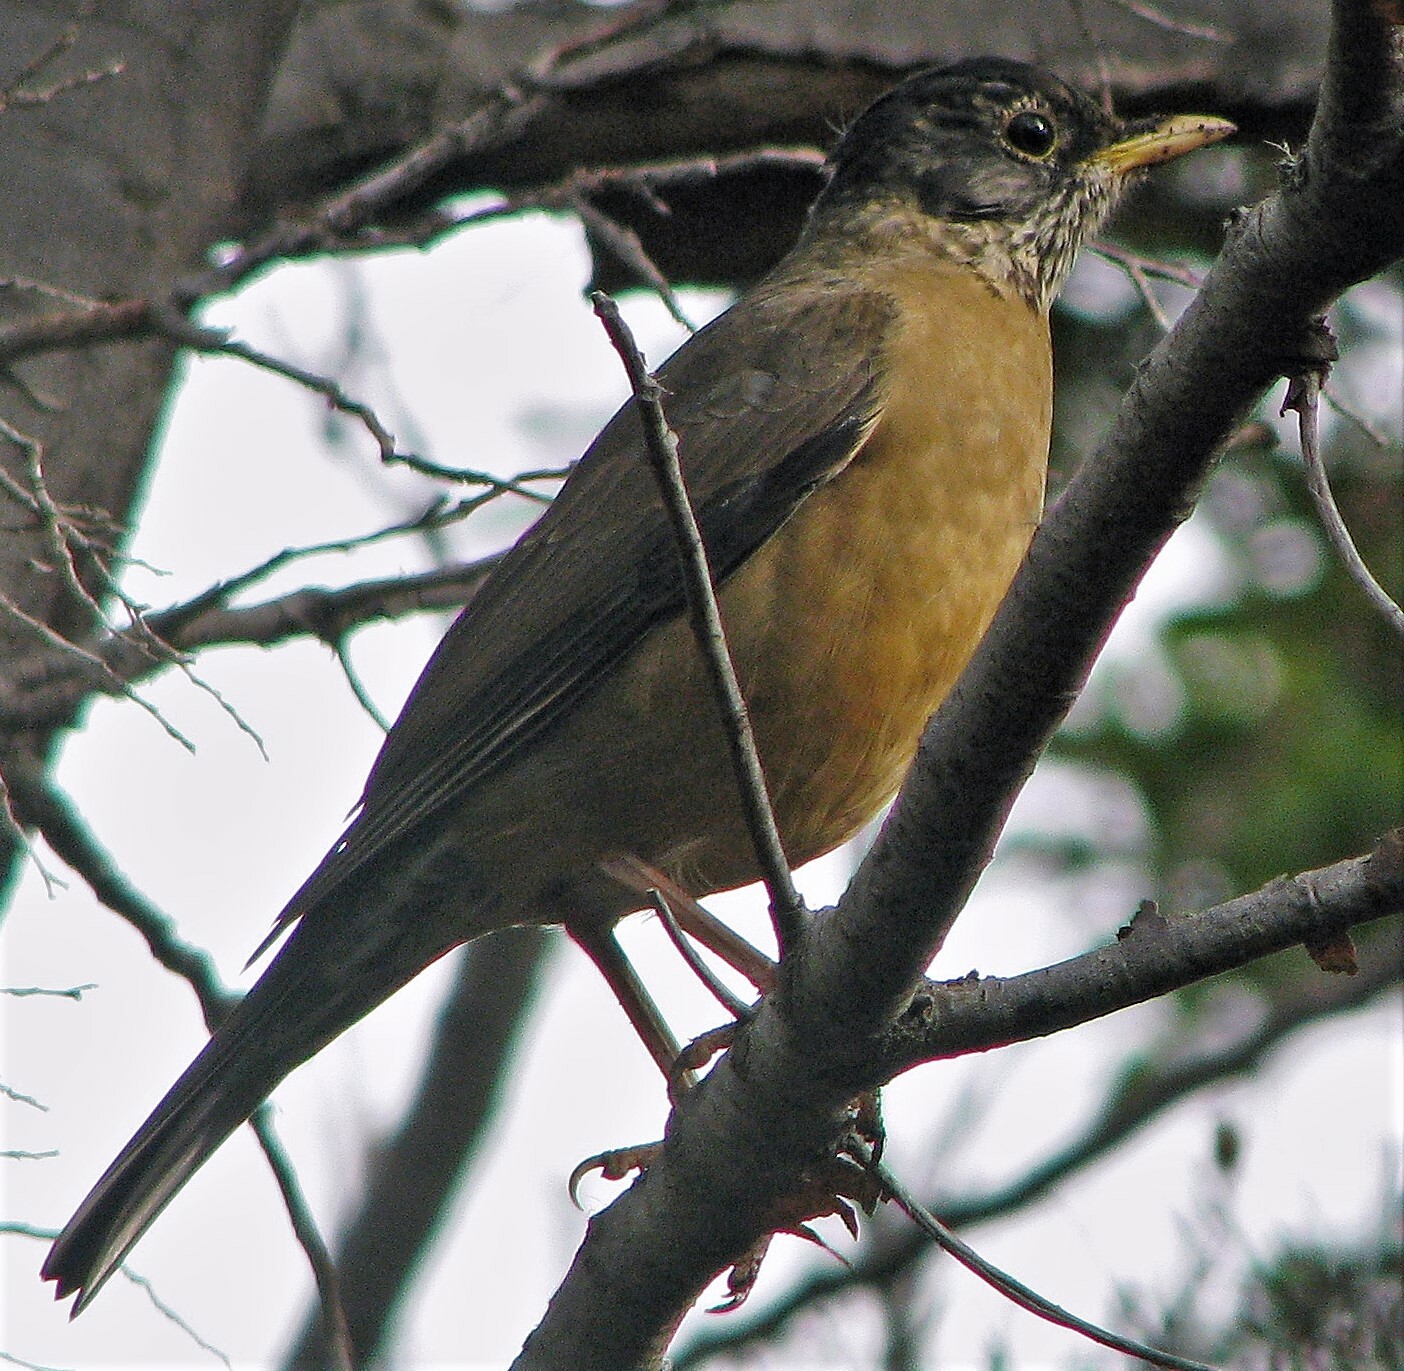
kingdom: Animalia
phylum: Chordata
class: Aves
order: Passeriformes
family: Turdidae
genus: Turdus
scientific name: Turdus falcklandii
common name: Austral thrush
